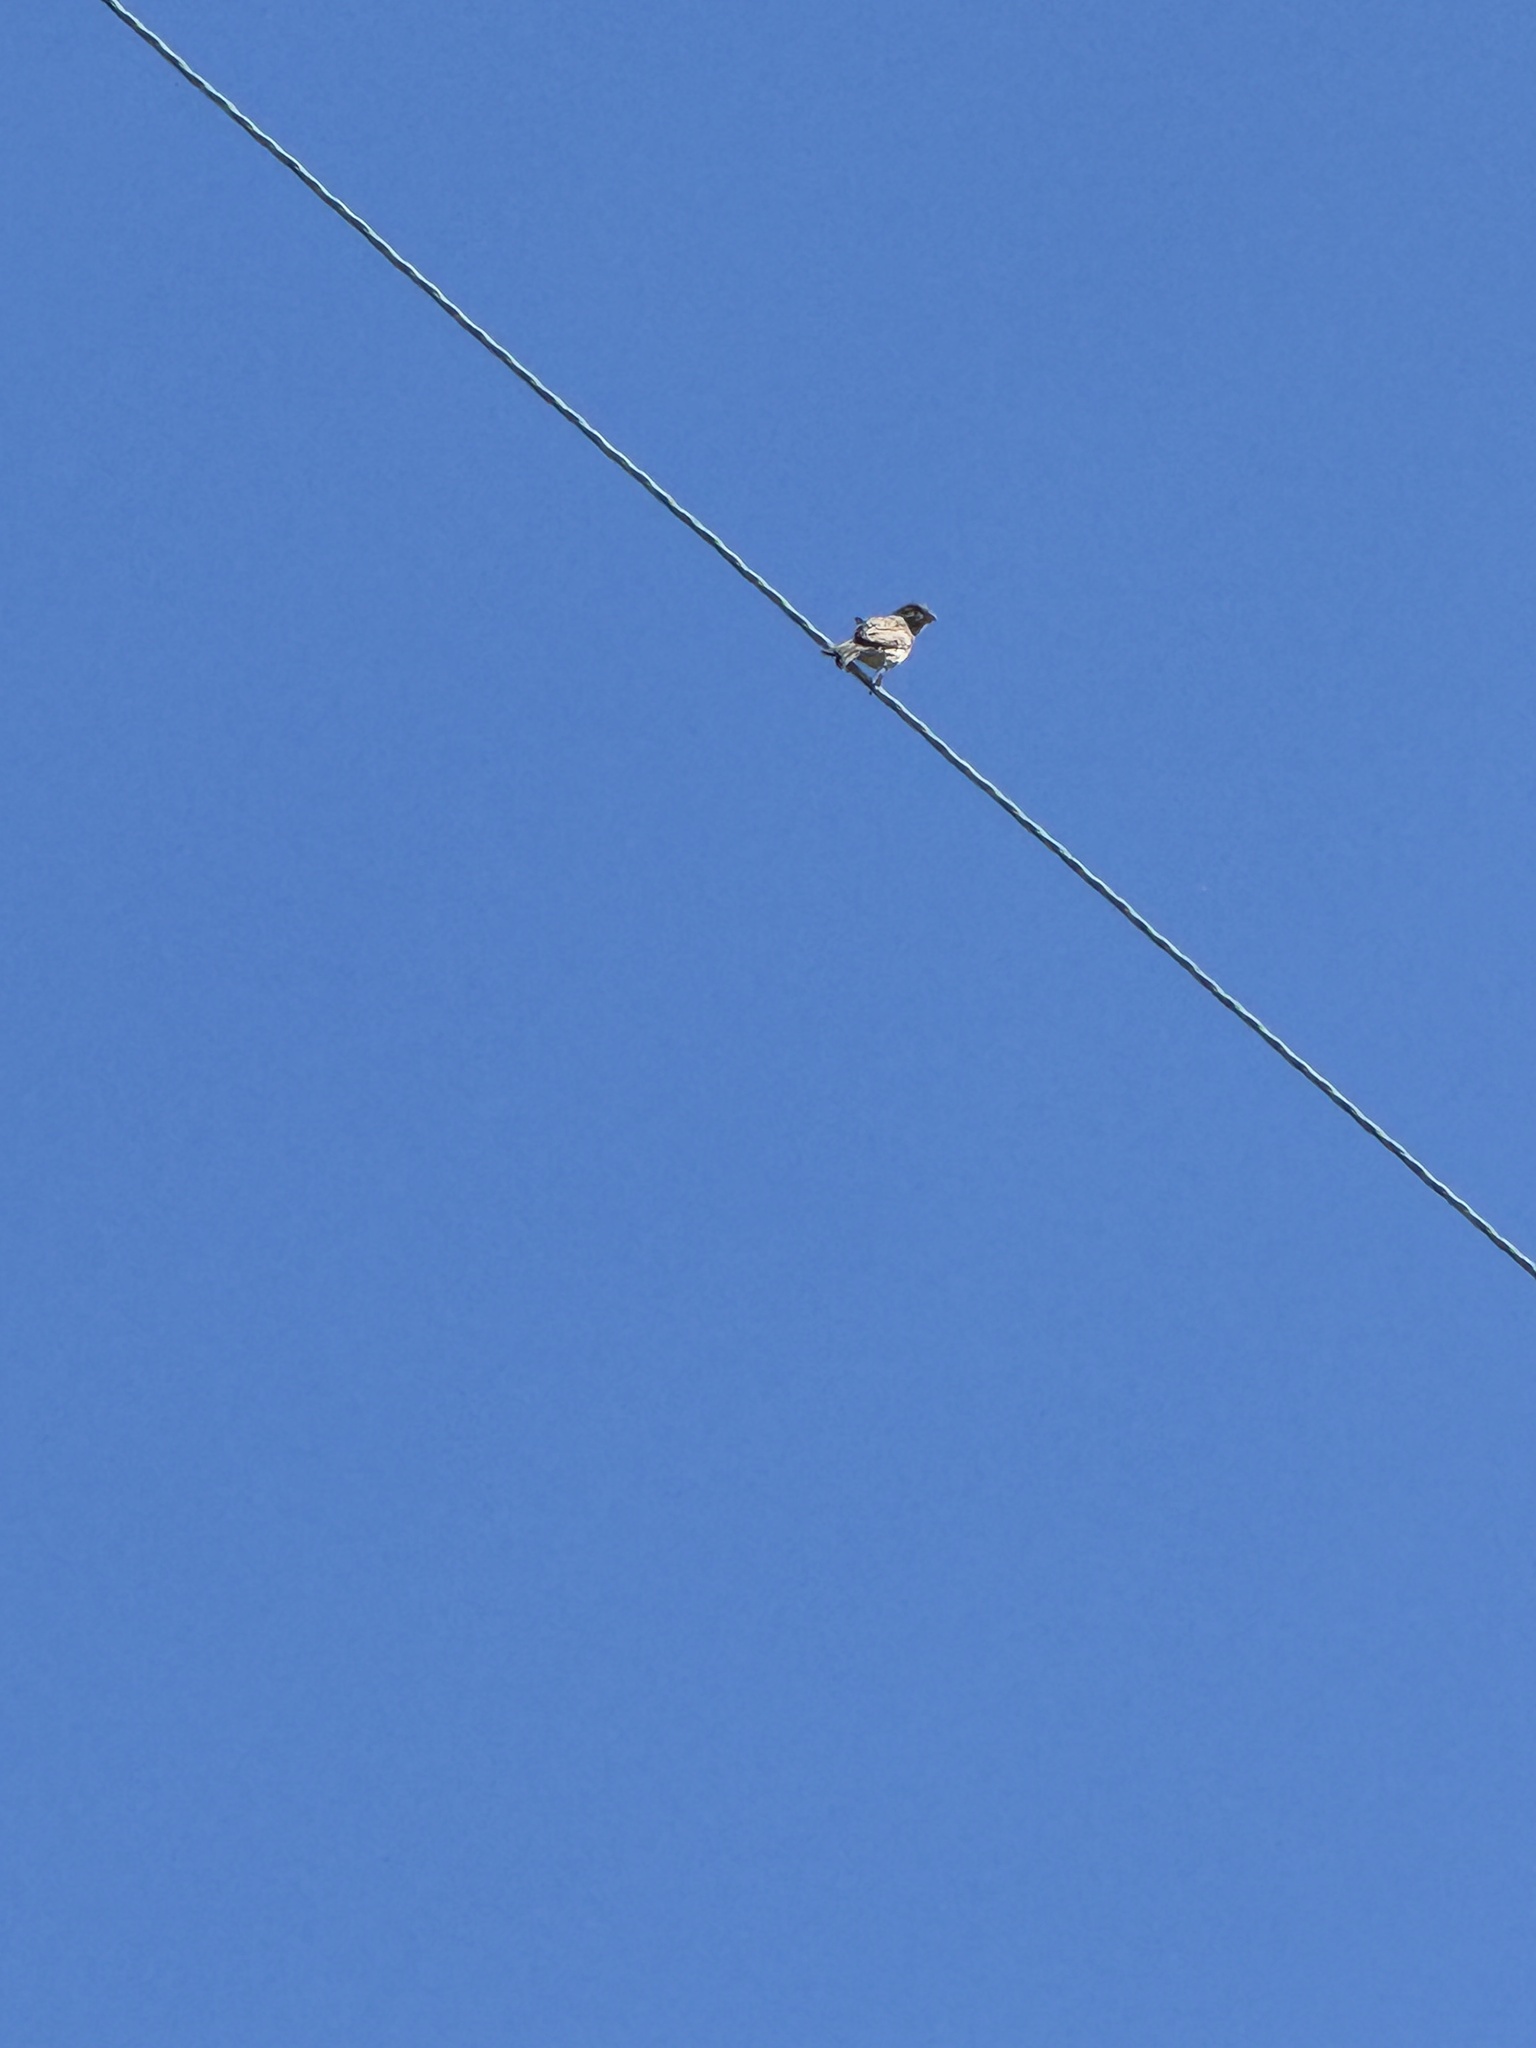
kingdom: Animalia
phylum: Chordata
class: Aves
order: Passeriformes
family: Fringillidae
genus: Haemorhous
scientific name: Haemorhous mexicanus
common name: House finch
